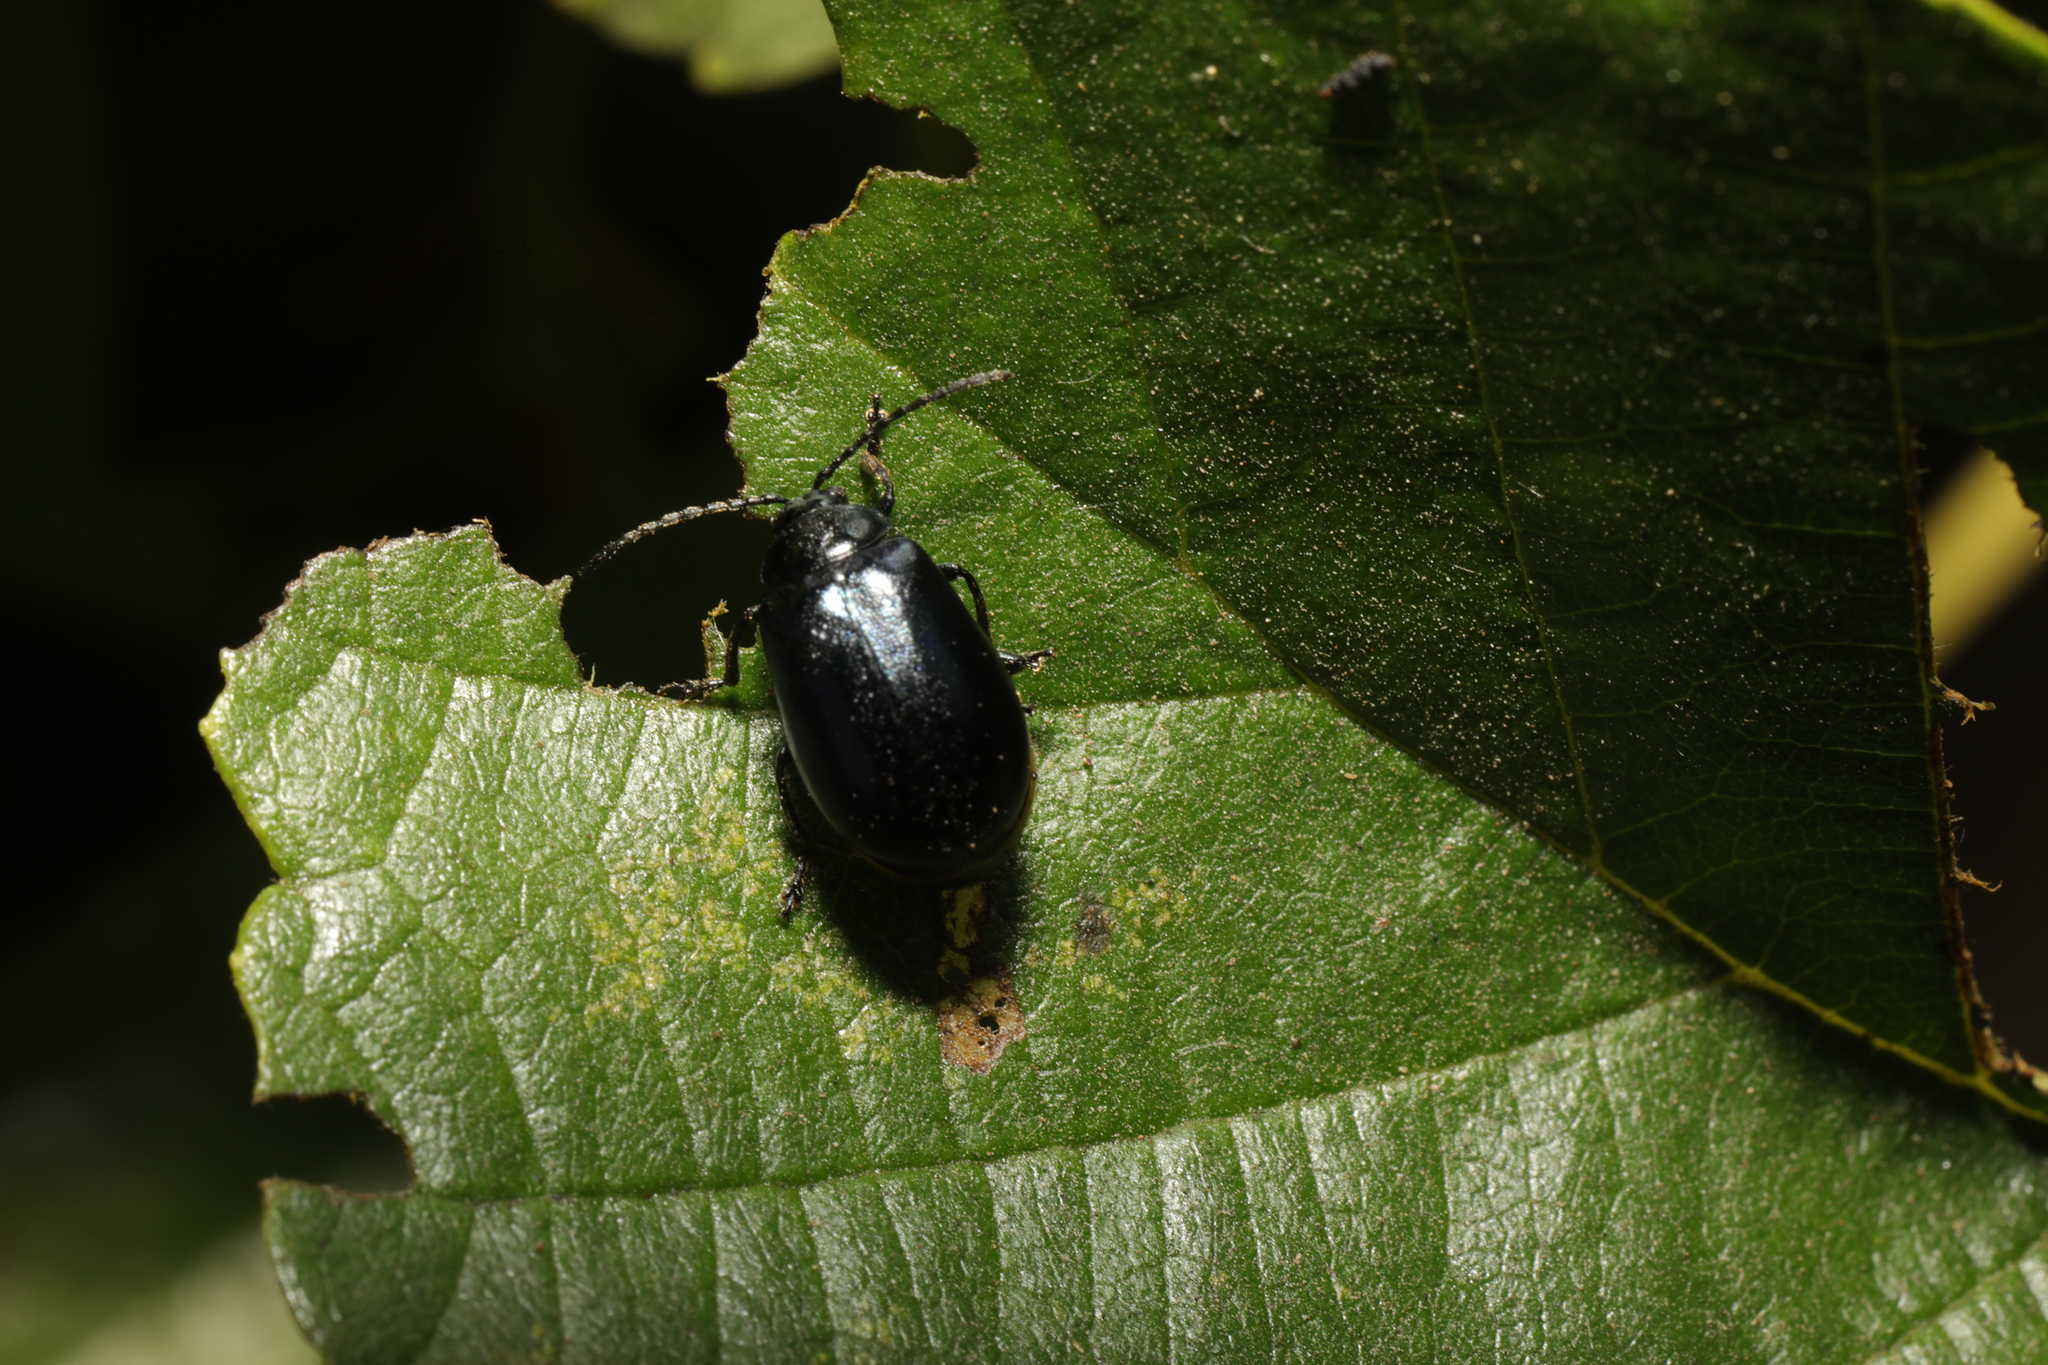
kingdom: Animalia
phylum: Arthropoda
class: Insecta
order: Coleoptera
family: Chrysomelidae
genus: Agelastica
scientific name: Agelastica alni
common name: Alder leaf beetle
